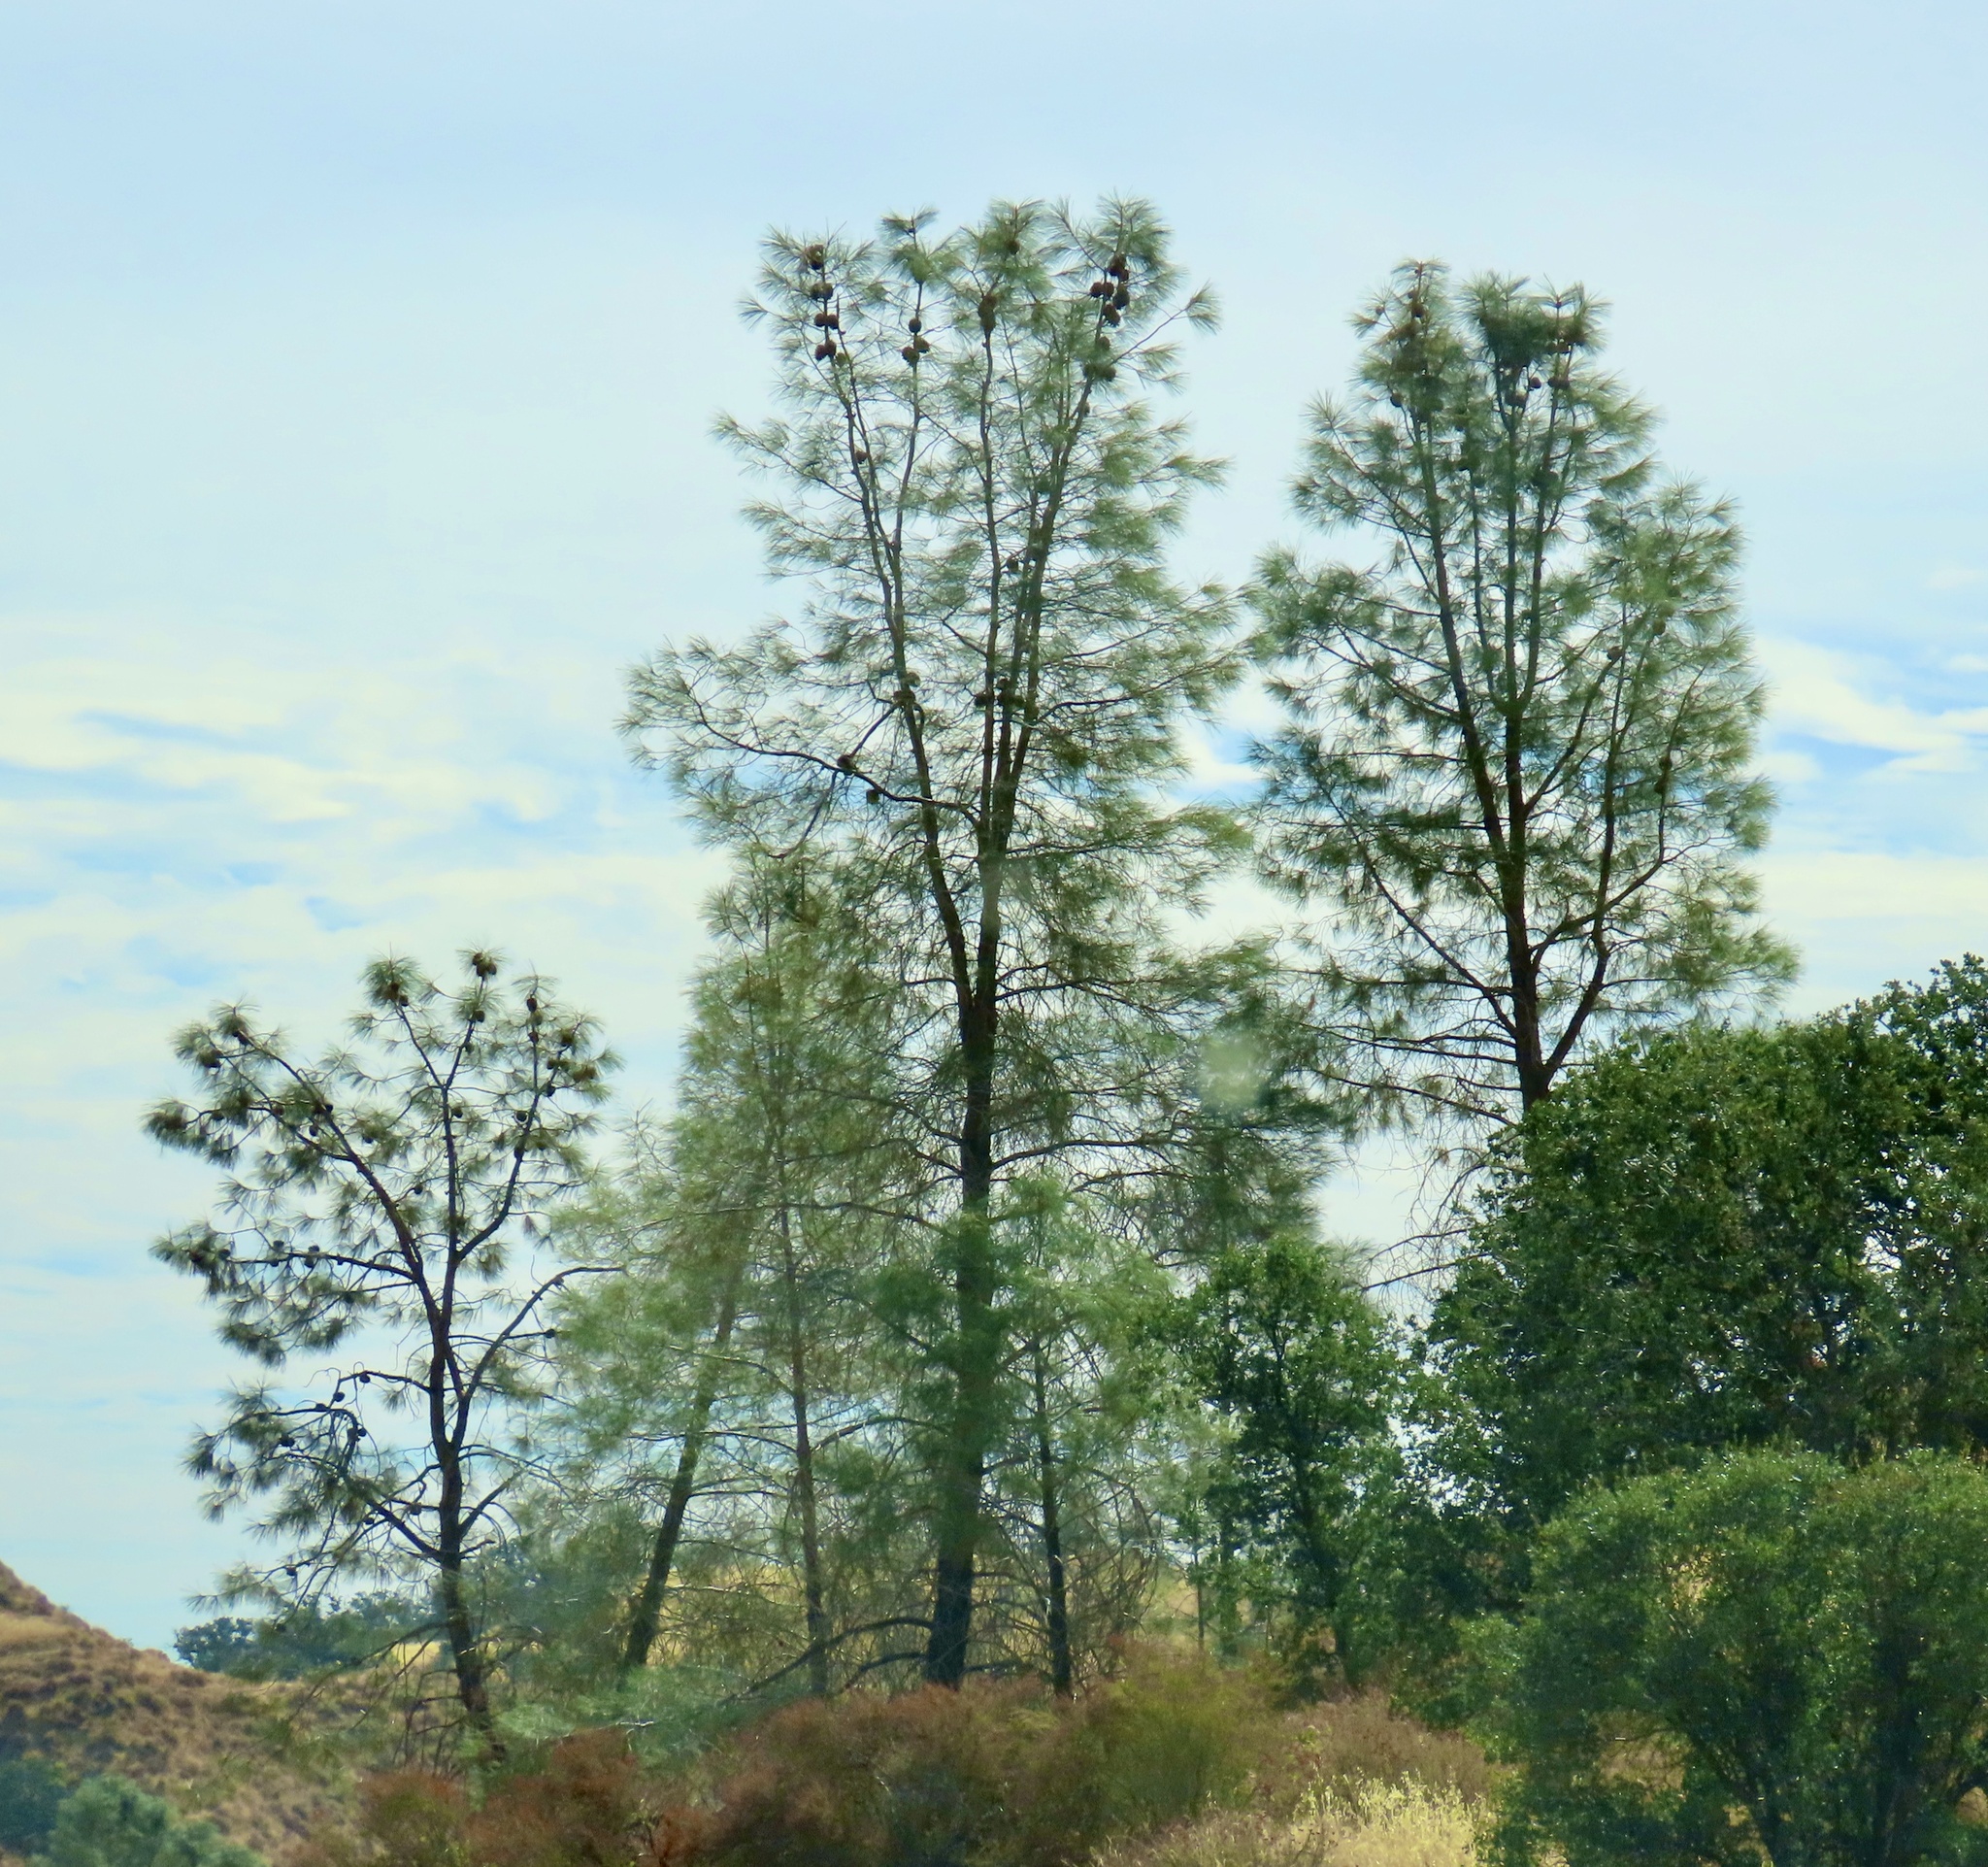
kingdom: Plantae
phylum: Tracheophyta
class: Pinopsida
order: Pinales
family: Pinaceae
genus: Pinus
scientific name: Pinus sabiniana
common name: Bull pine
